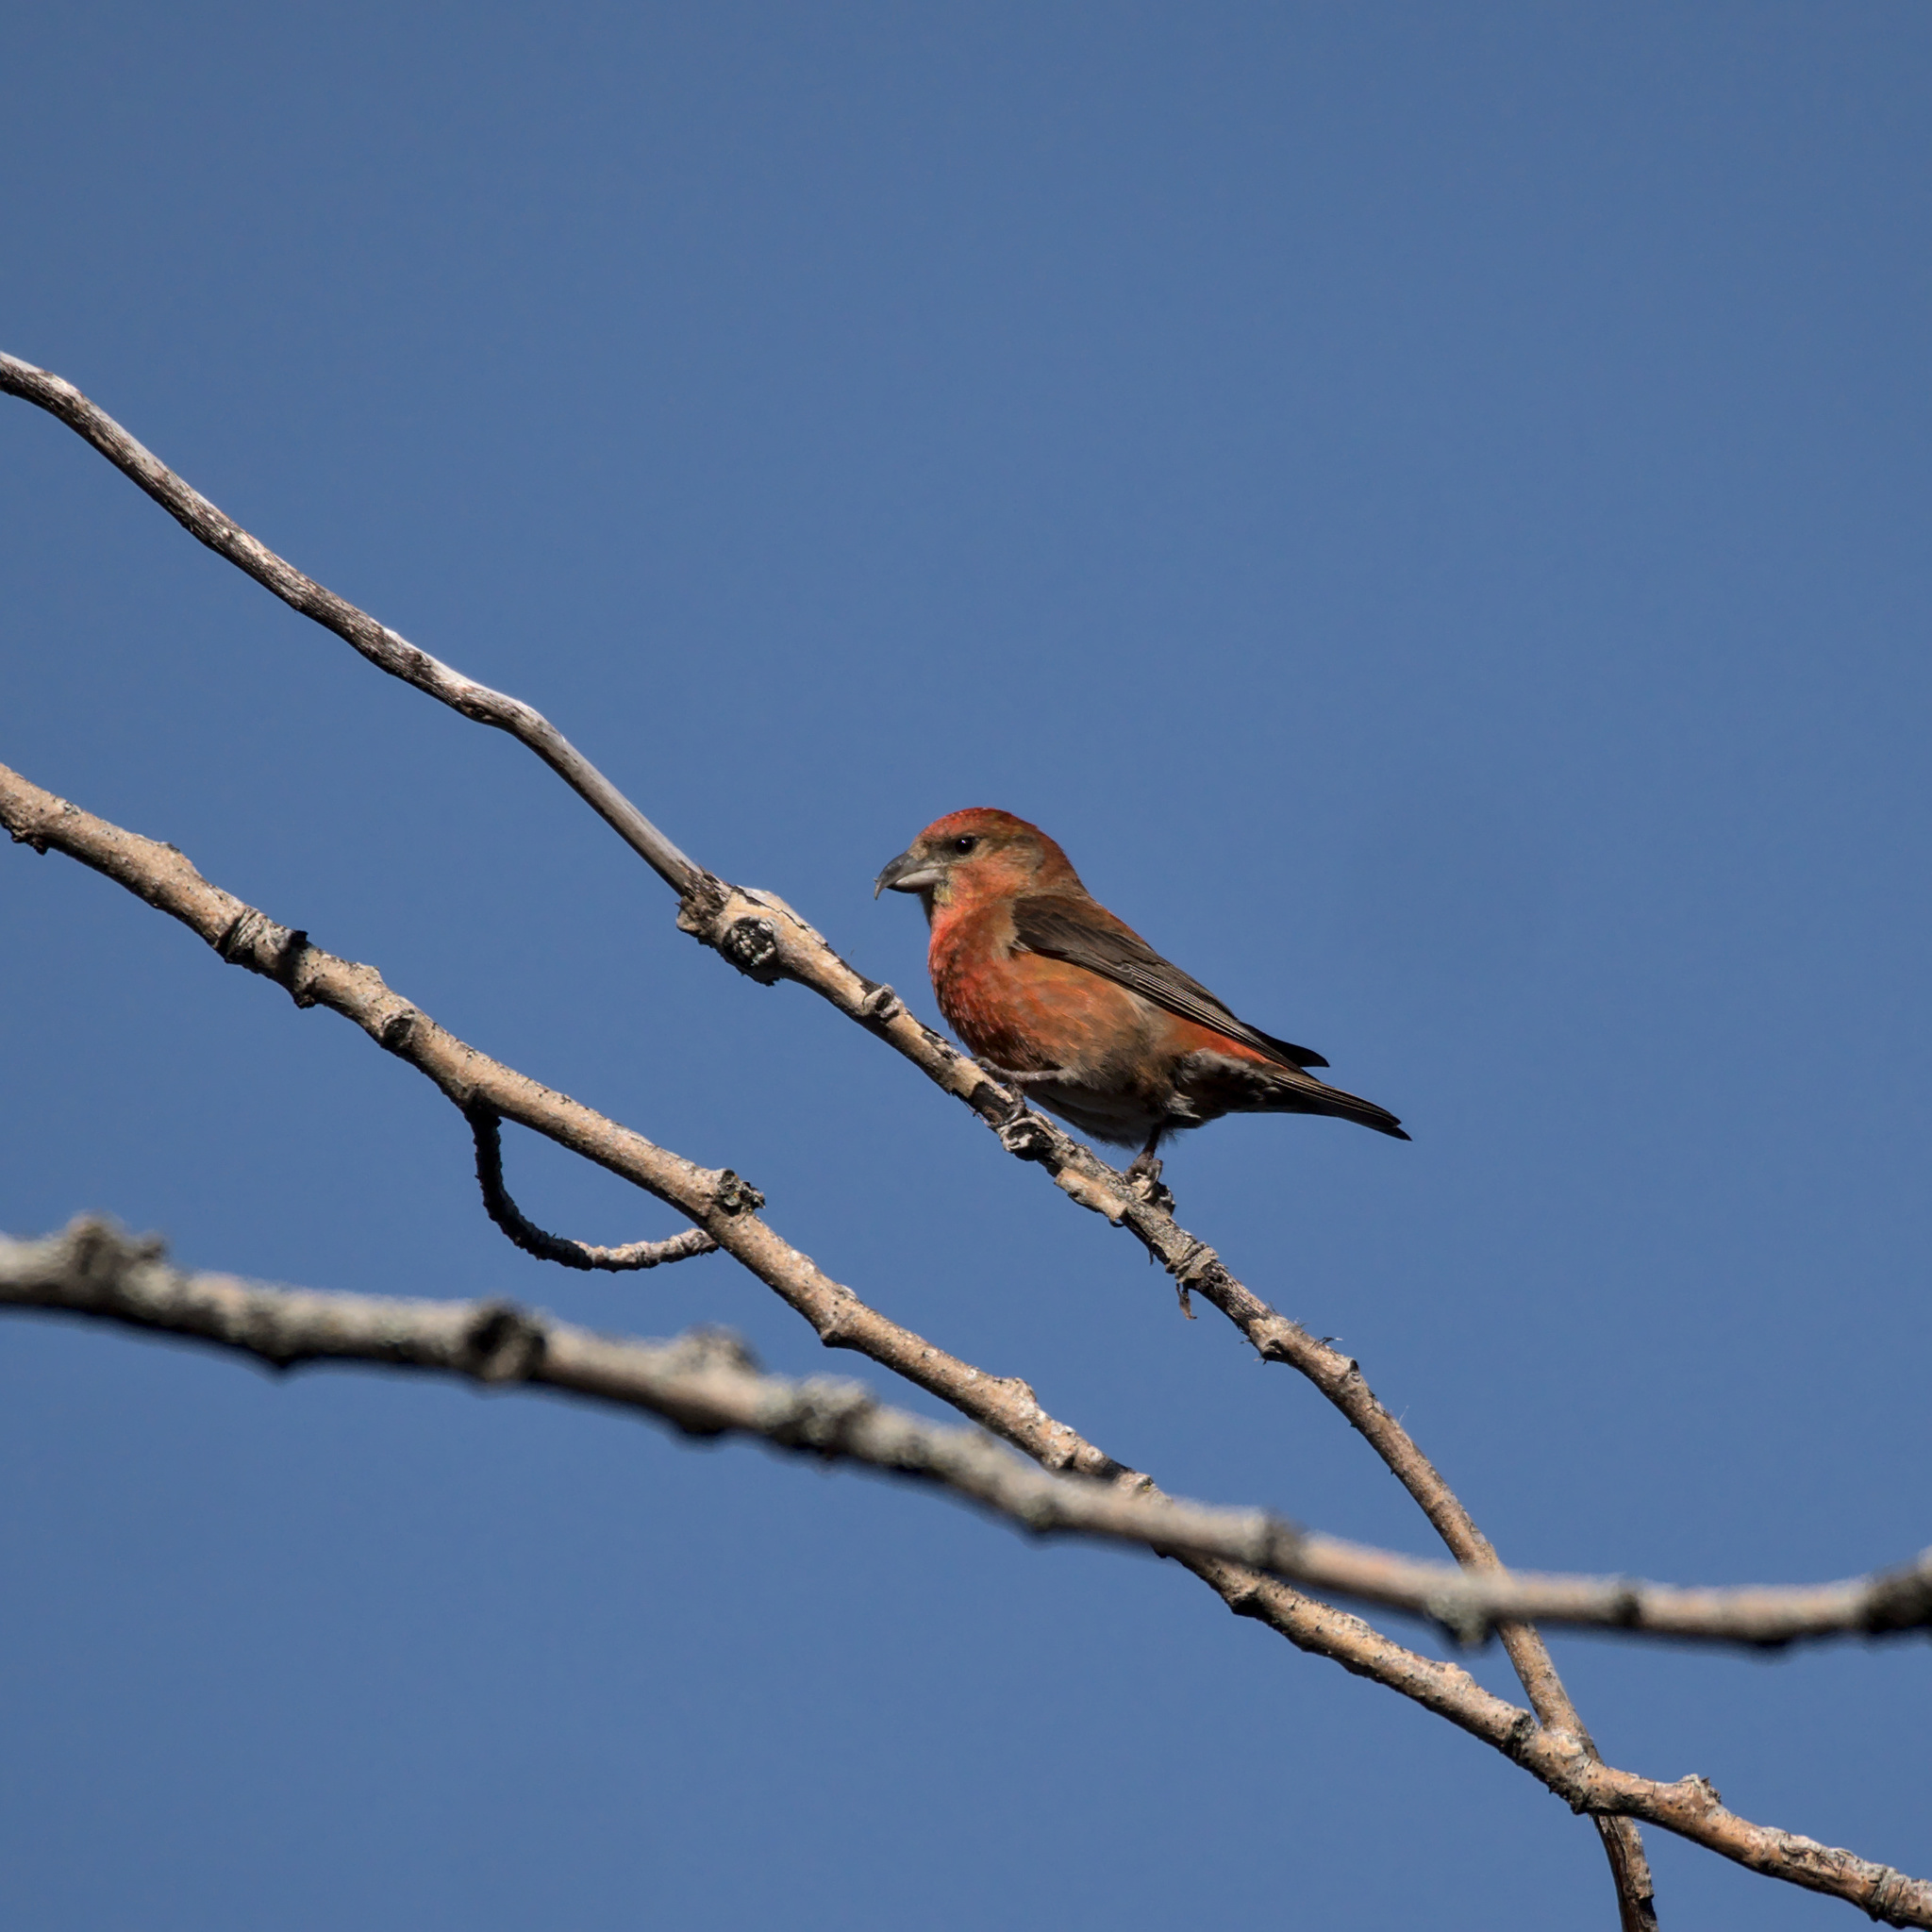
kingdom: Animalia
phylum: Chordata
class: Aves
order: Passeriformes
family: Fringillidae
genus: Loxia
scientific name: Loxia curvirostra
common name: Red crossbill
